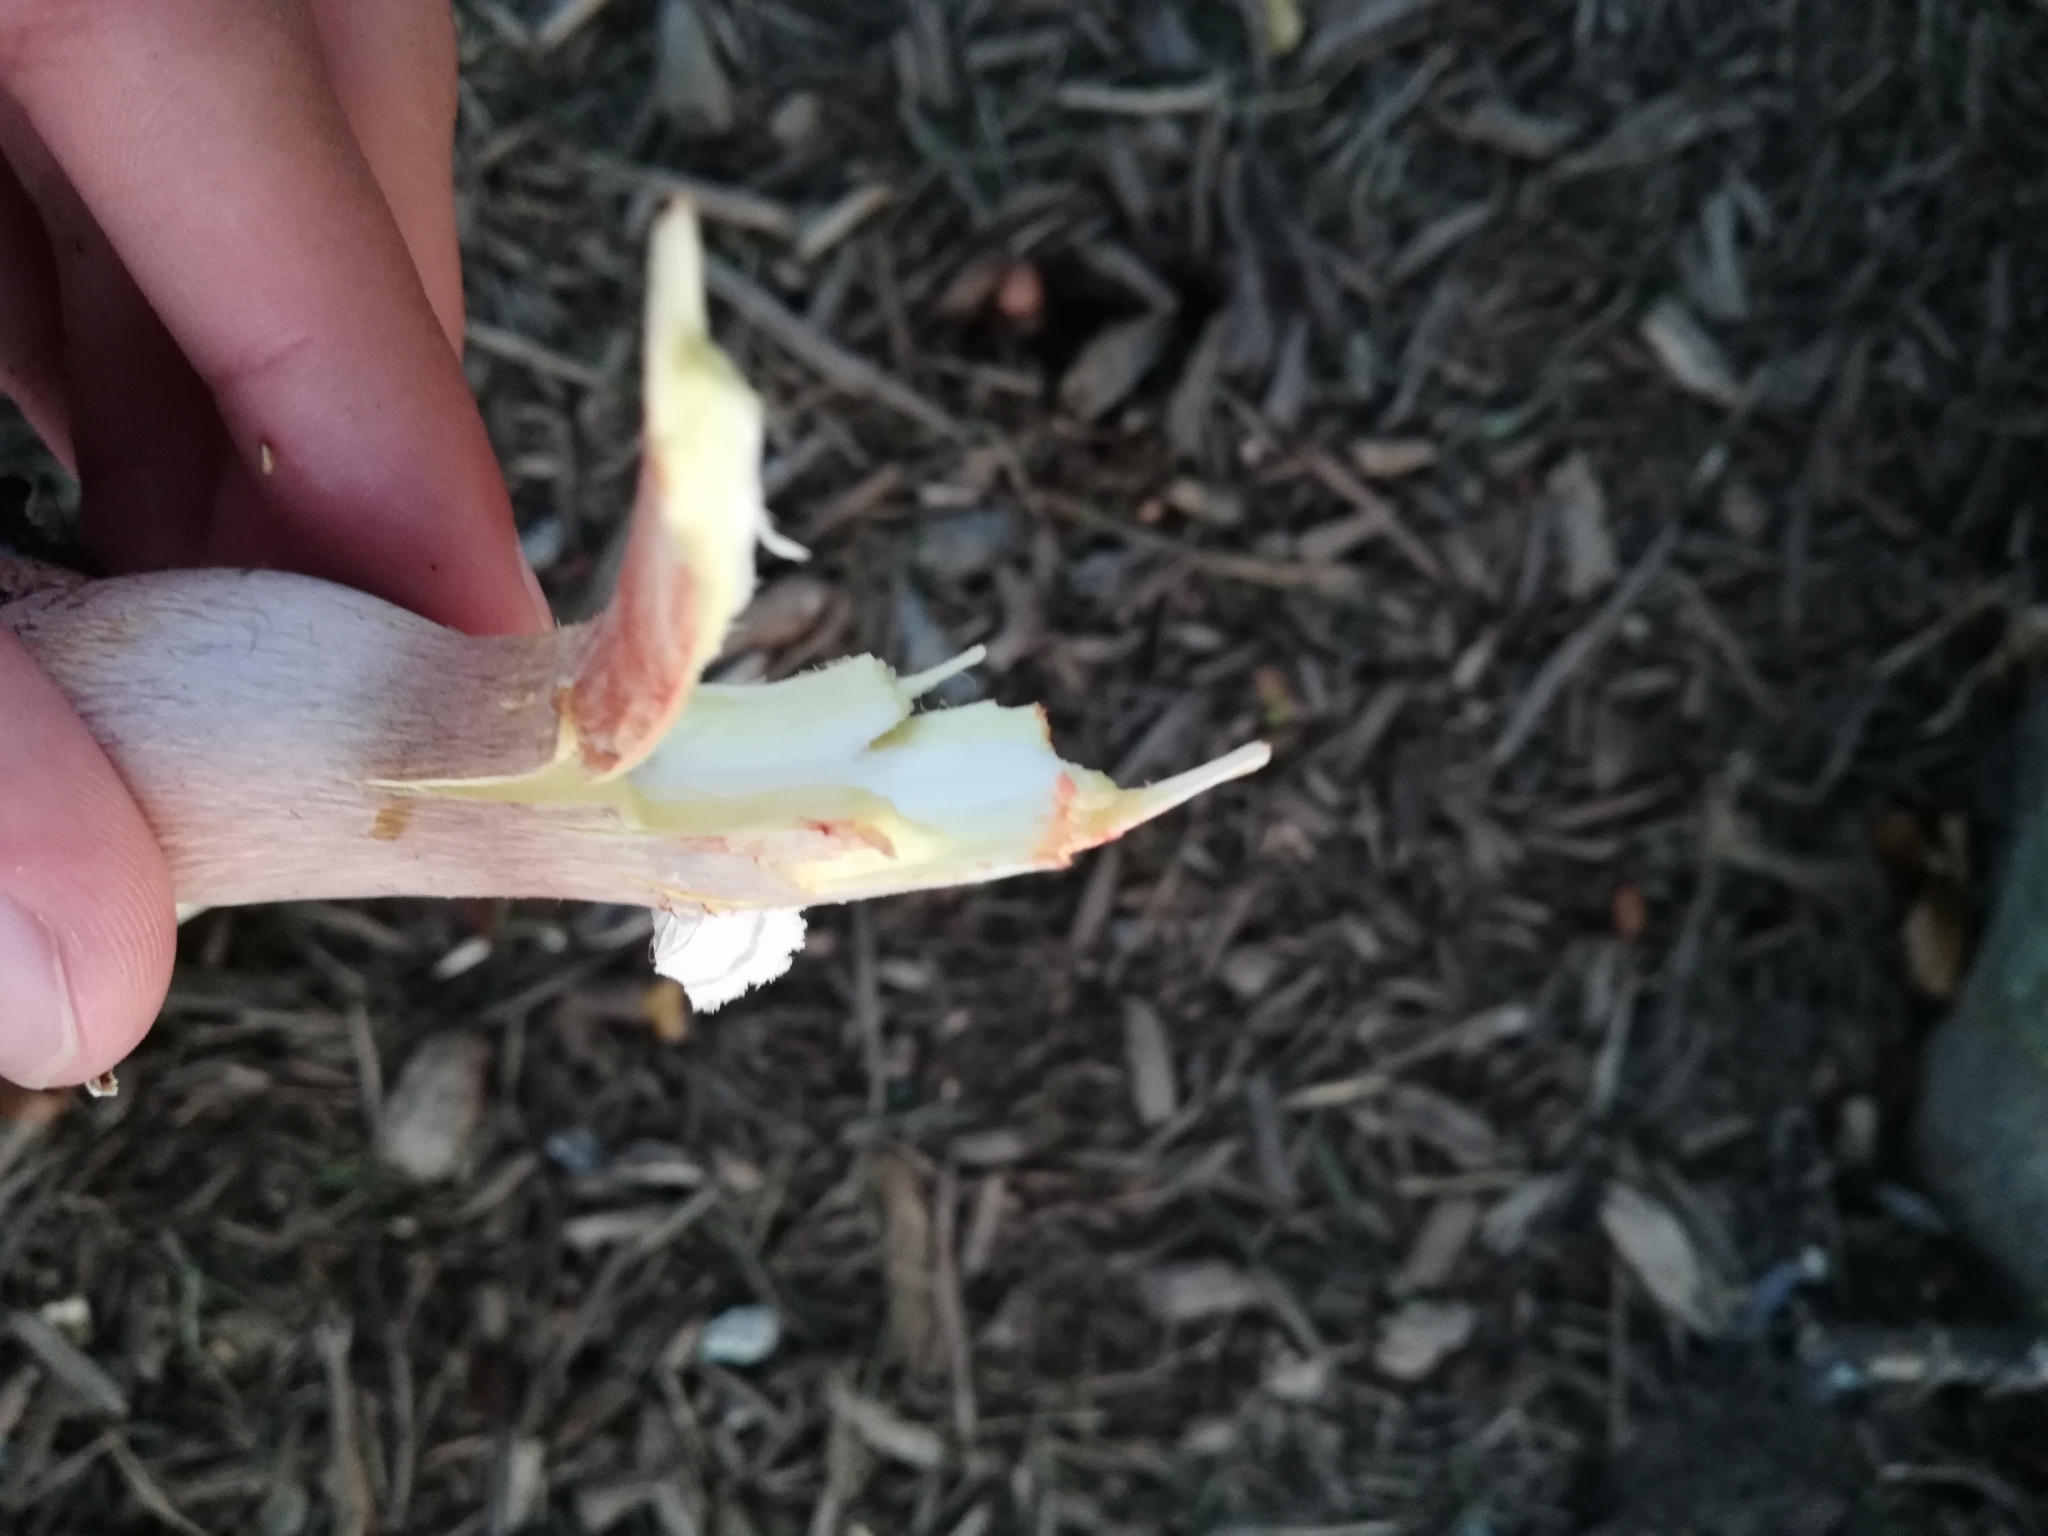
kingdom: Fungi
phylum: Basidiomycota
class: Agaricomycetes
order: Agaricales
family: Agaricaceae
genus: Leucoagaricus
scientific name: Leucoagaricus americanus
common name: Reddening lepiota
